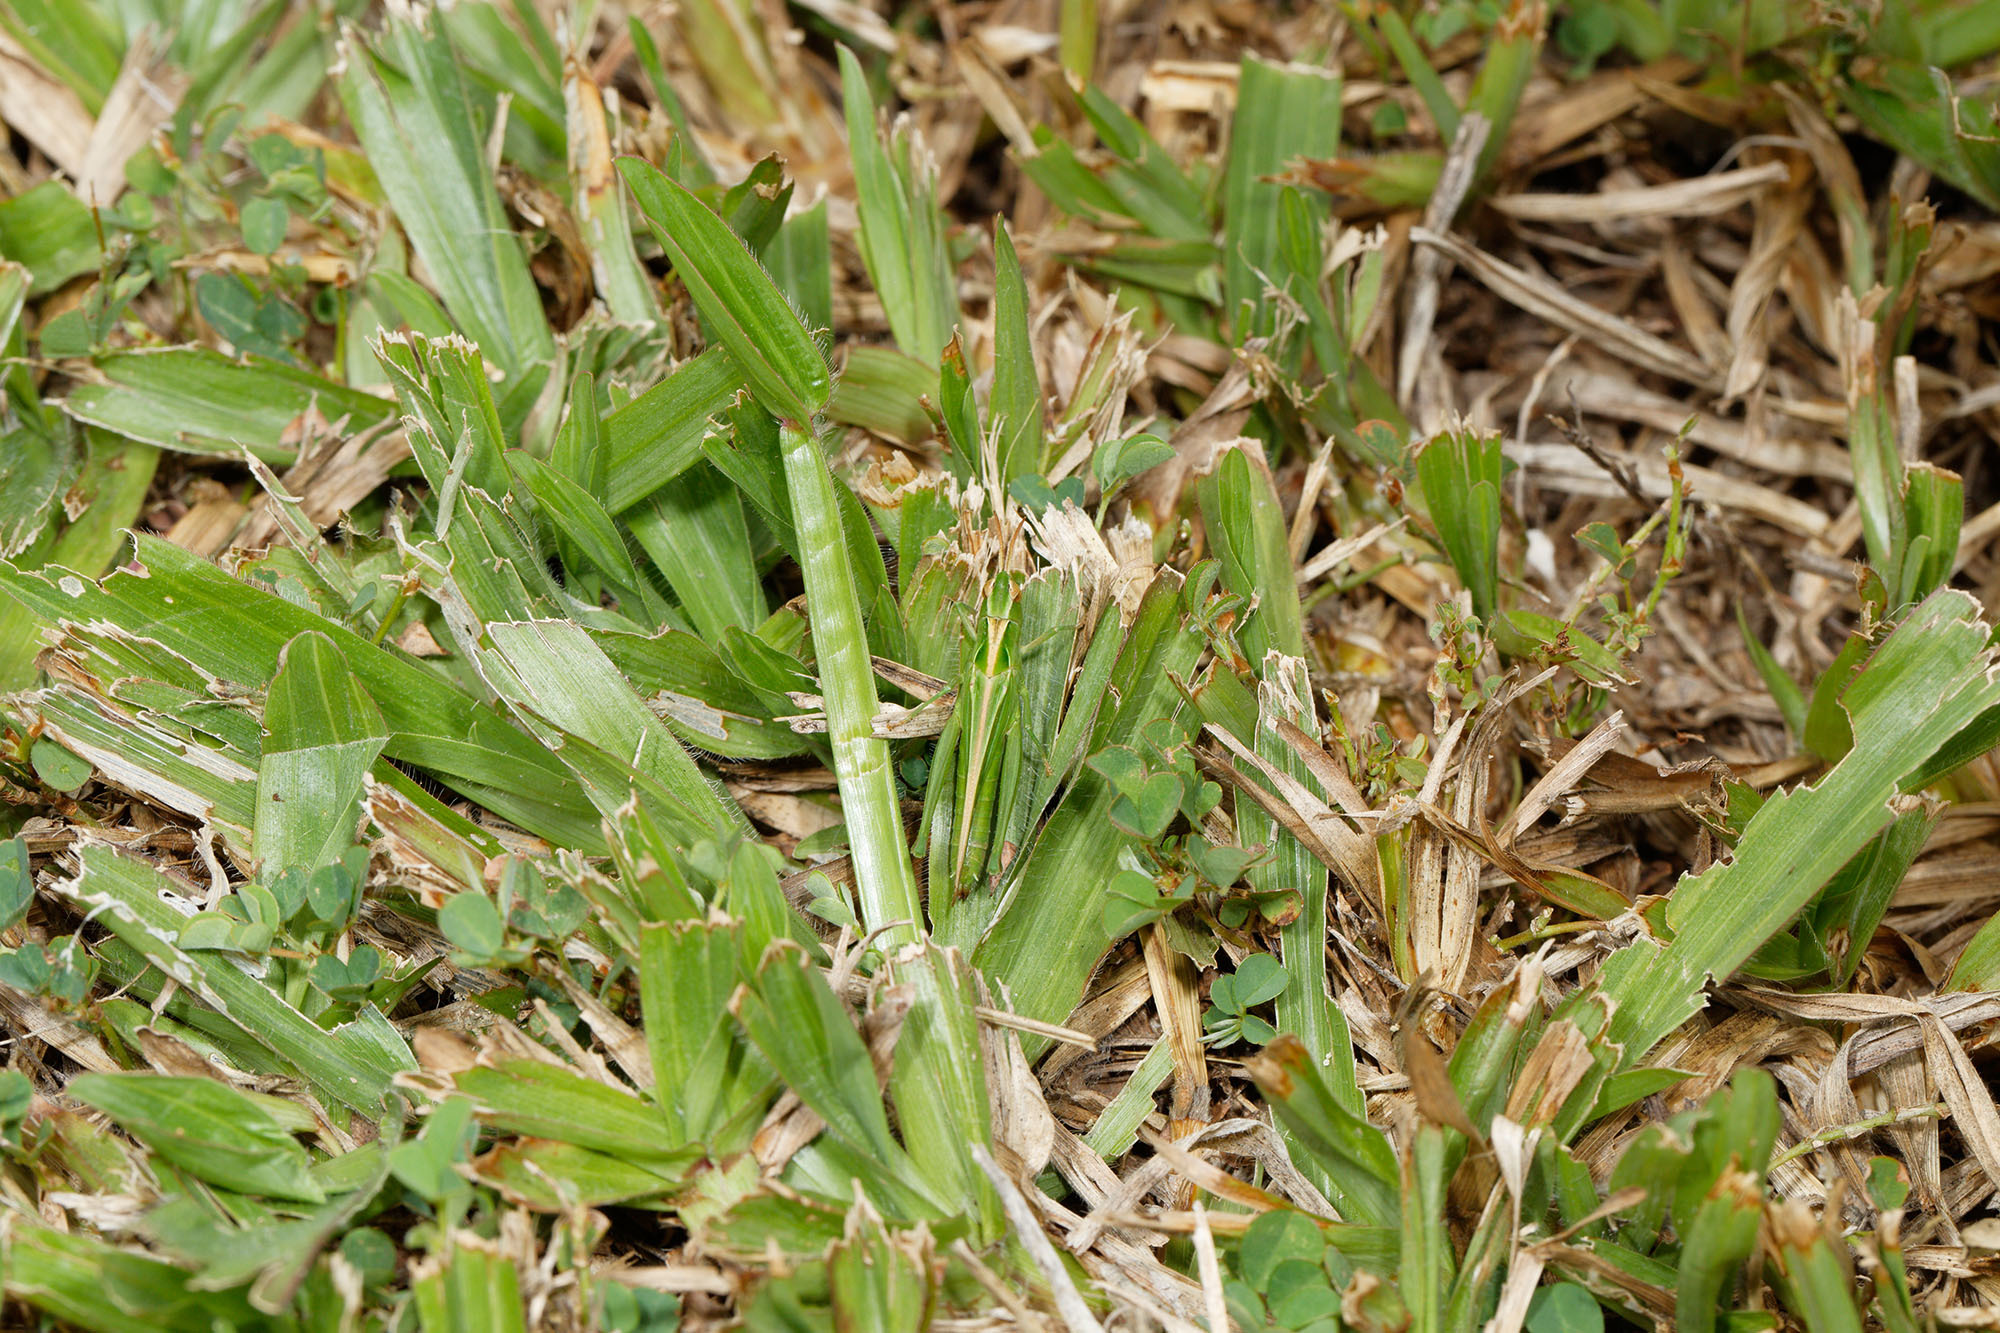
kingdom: Animalia
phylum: Arthropoda
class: Insecta
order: Orthoptera
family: Acrididae
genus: Calephorops
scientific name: Calephorops viridis
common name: Calephorops
